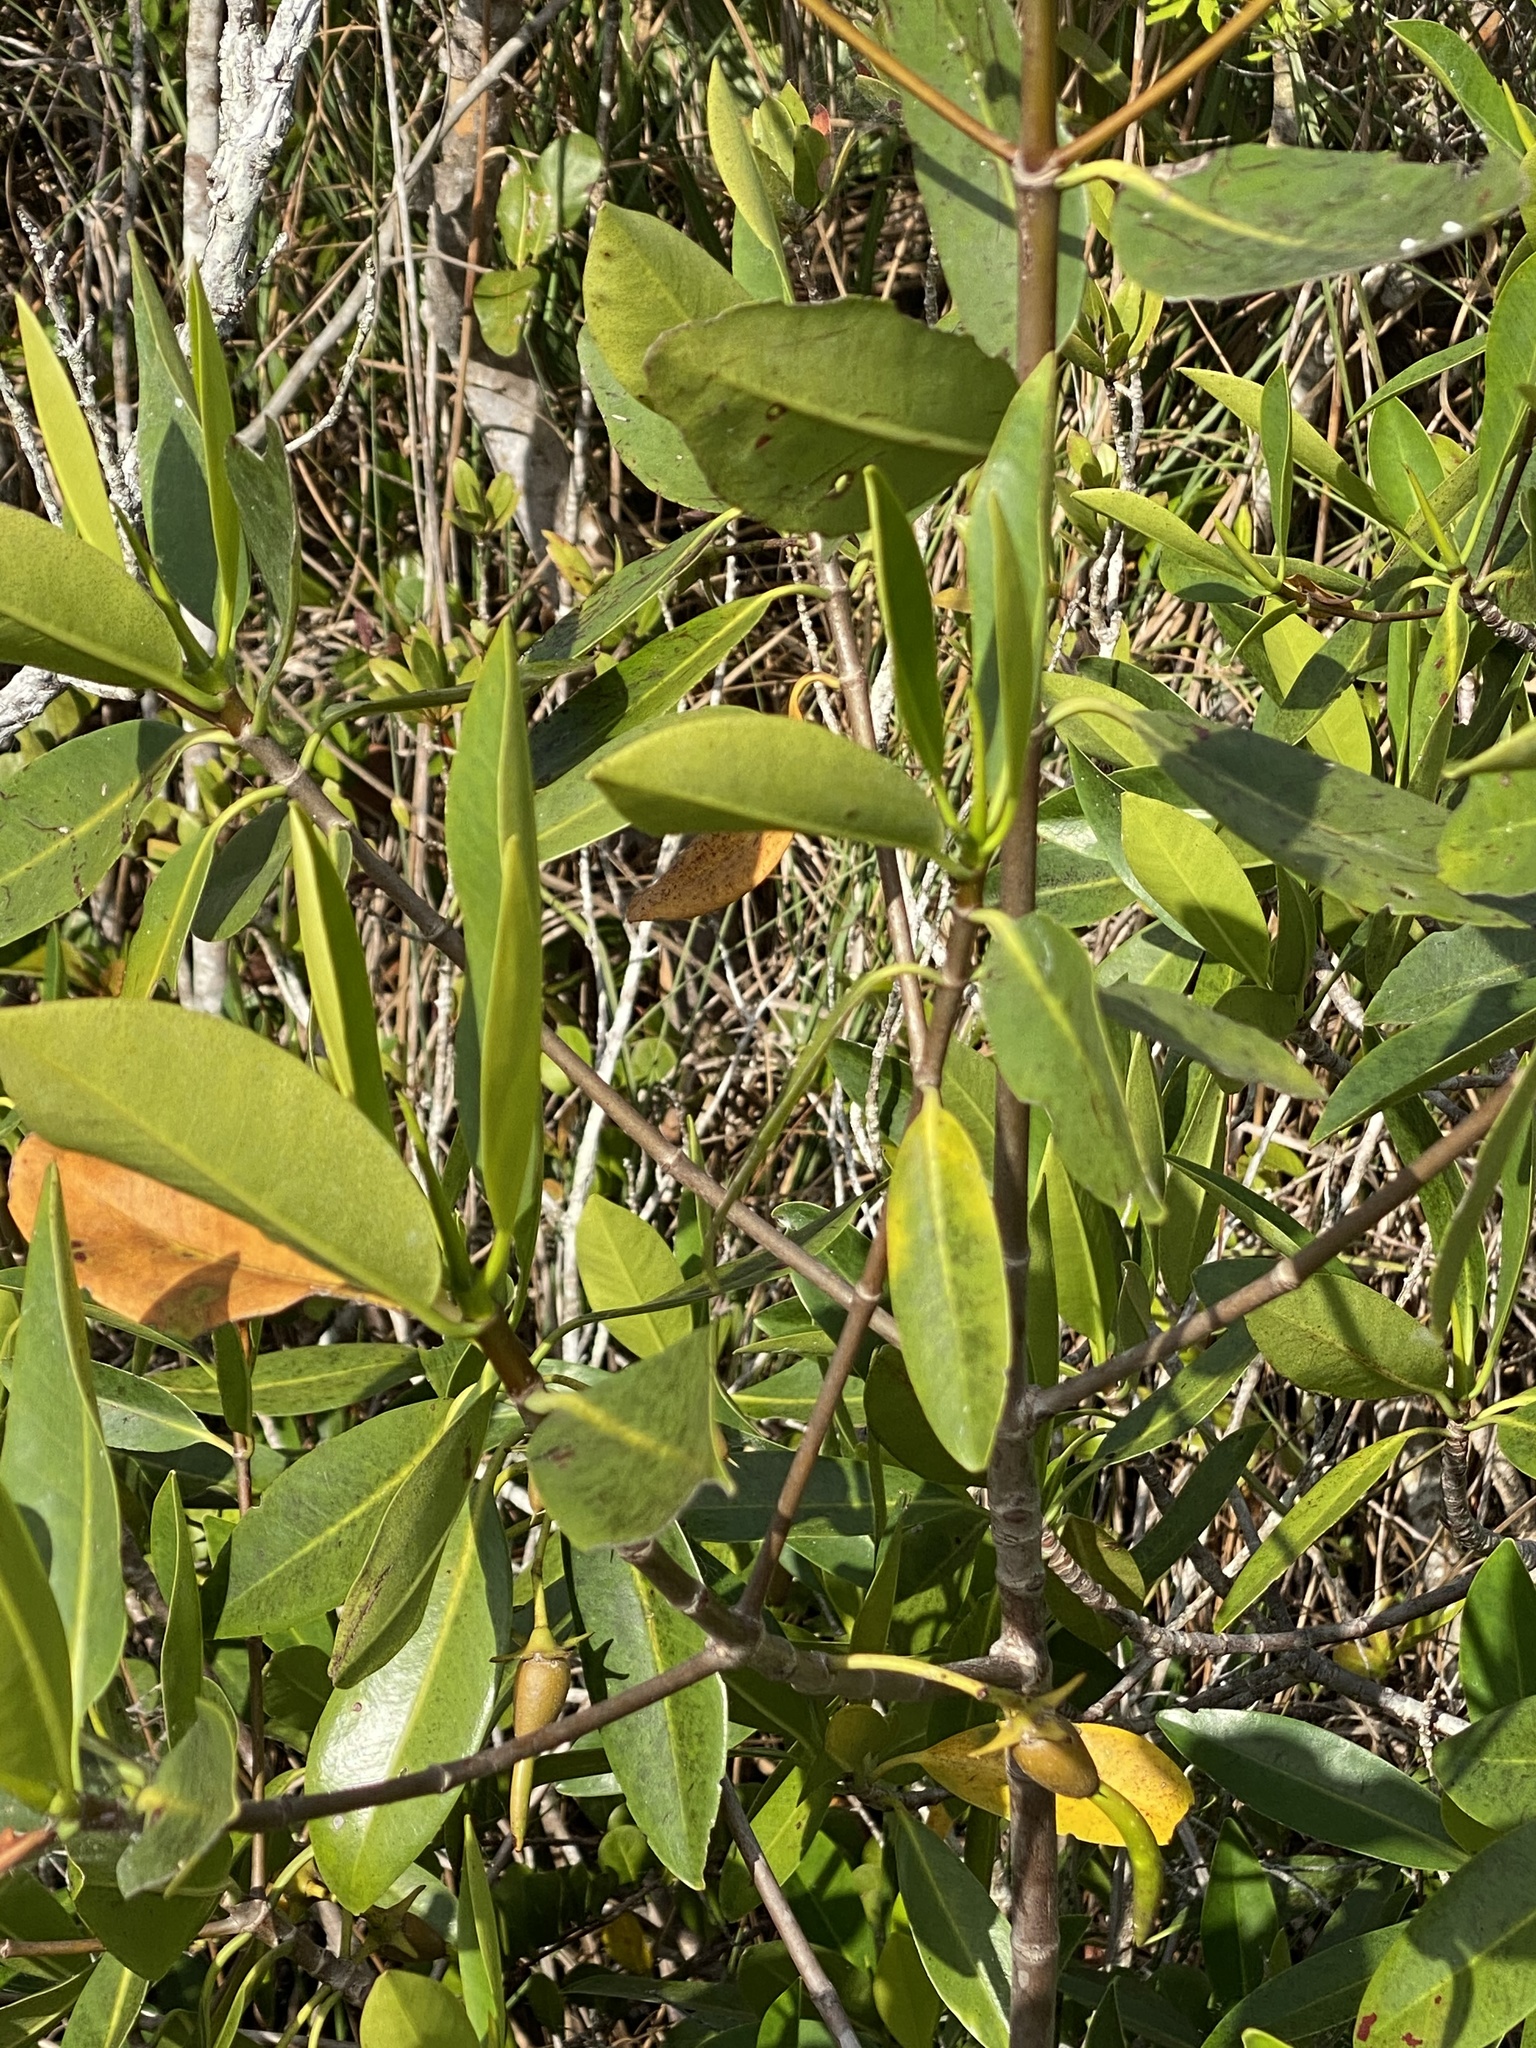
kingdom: Plantae
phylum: Tracheophyta
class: Magnoliopsida
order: Malpighiales
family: Rhizophoraceae
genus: Rhizophora
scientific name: Rhizophora mangle
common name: Red mangrove
